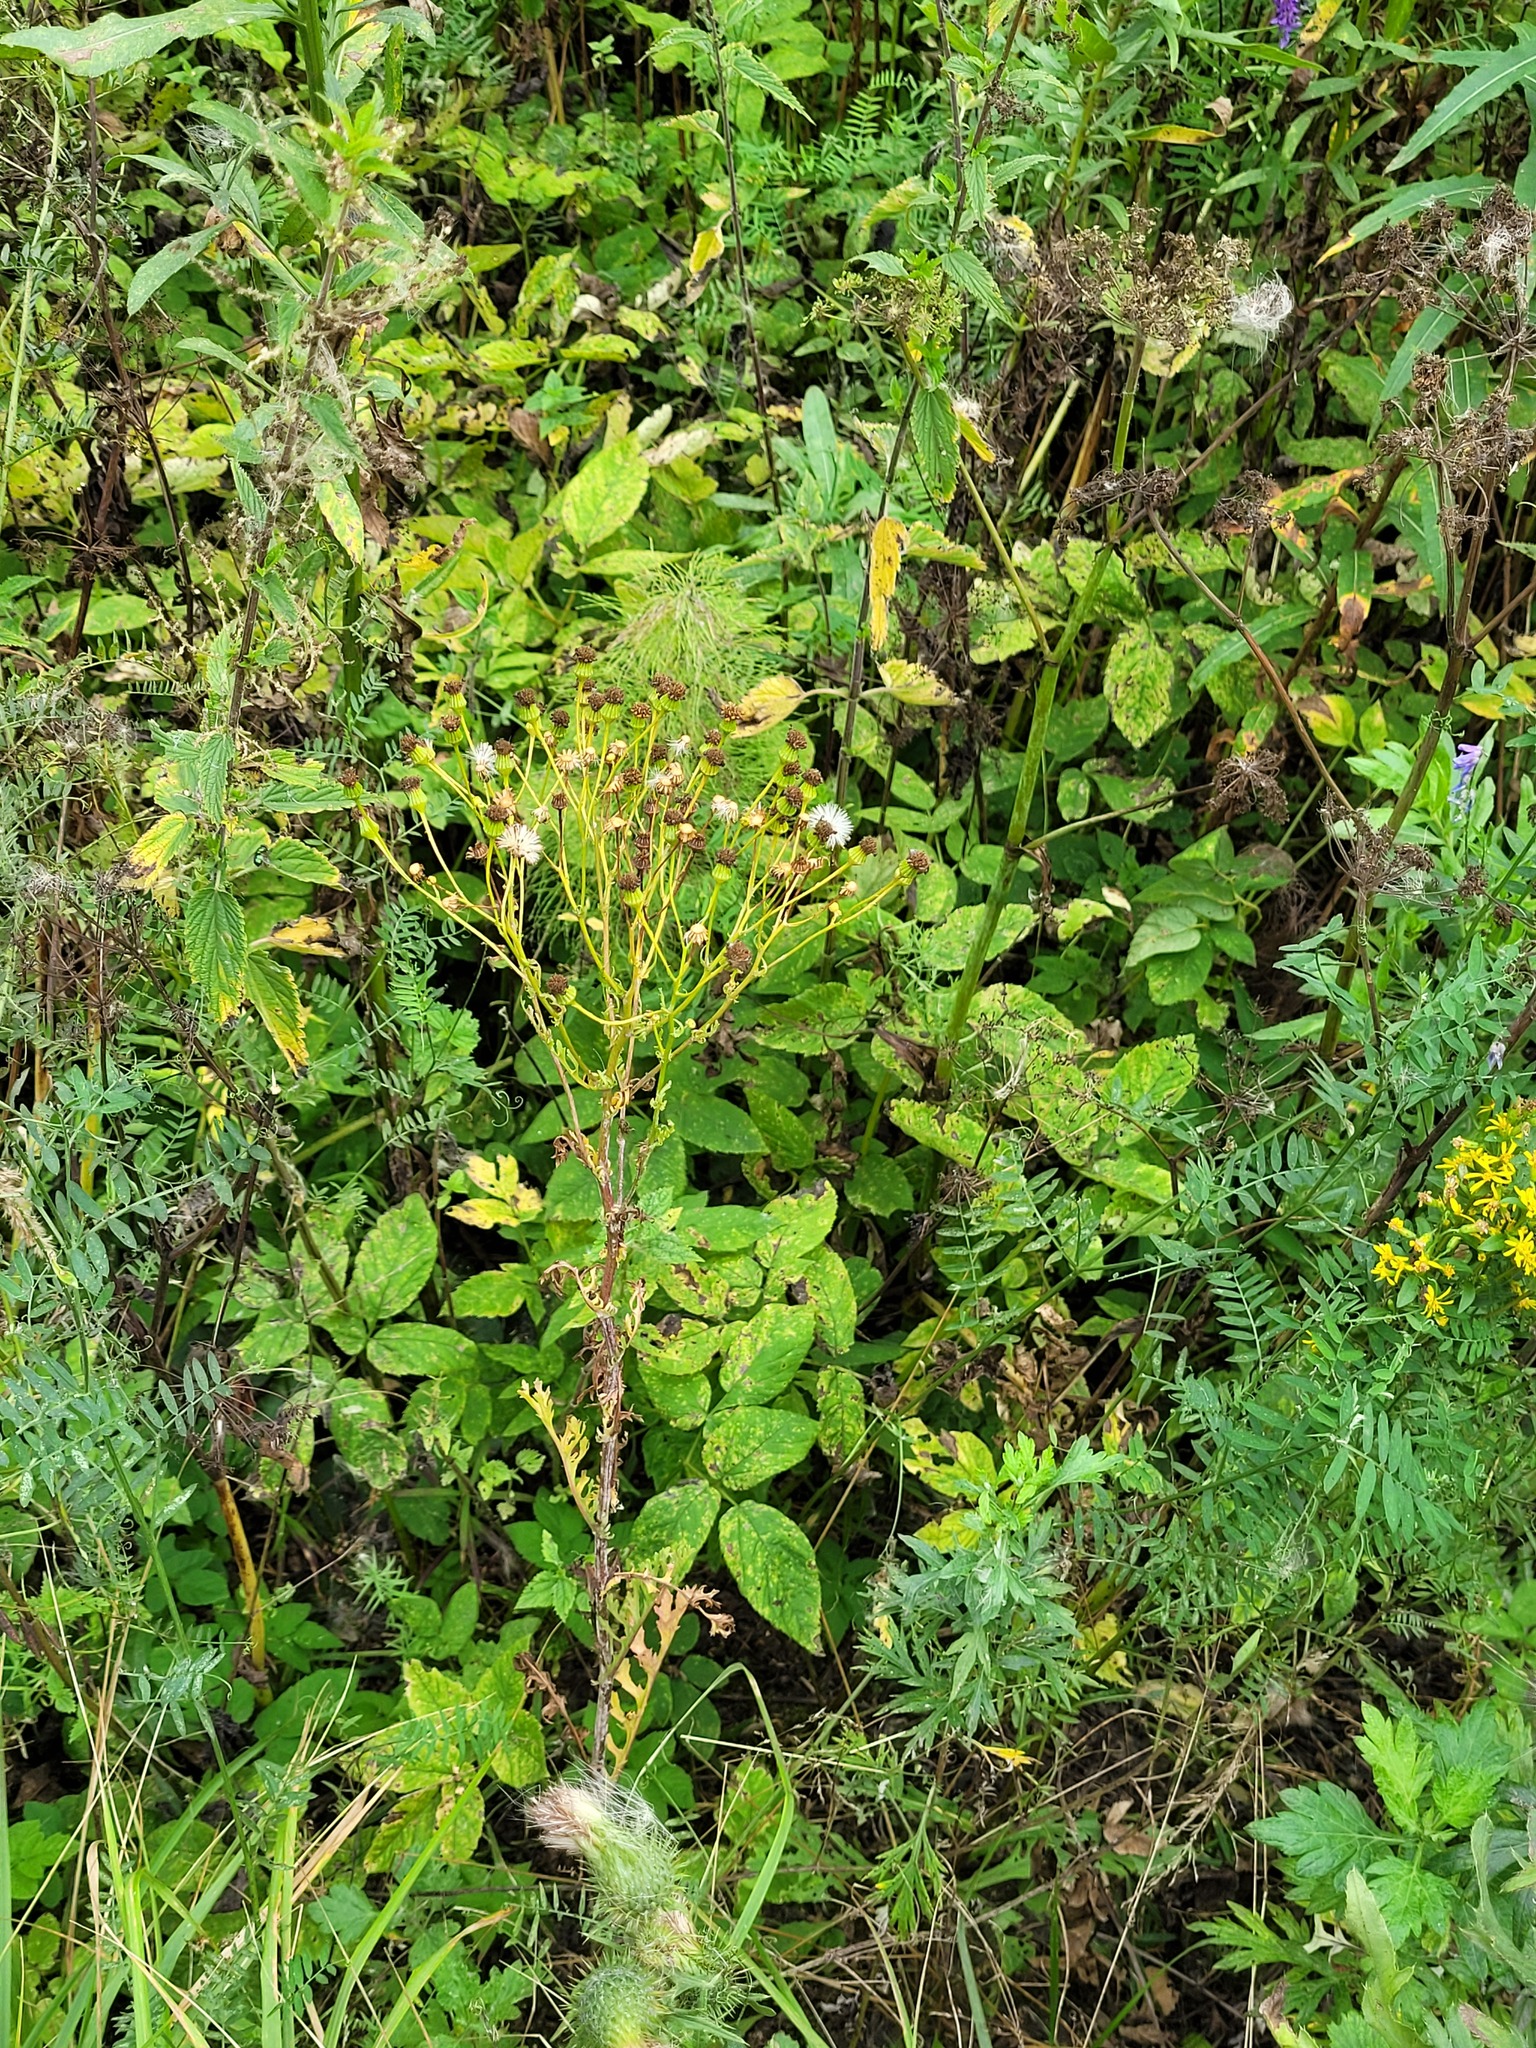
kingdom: Plantae
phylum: Tracheophyta
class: Magnoliopsida
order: Asterales
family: Asteraceae
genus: Jacobaea
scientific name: Jacobaea vulgaris
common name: Stinking willie
